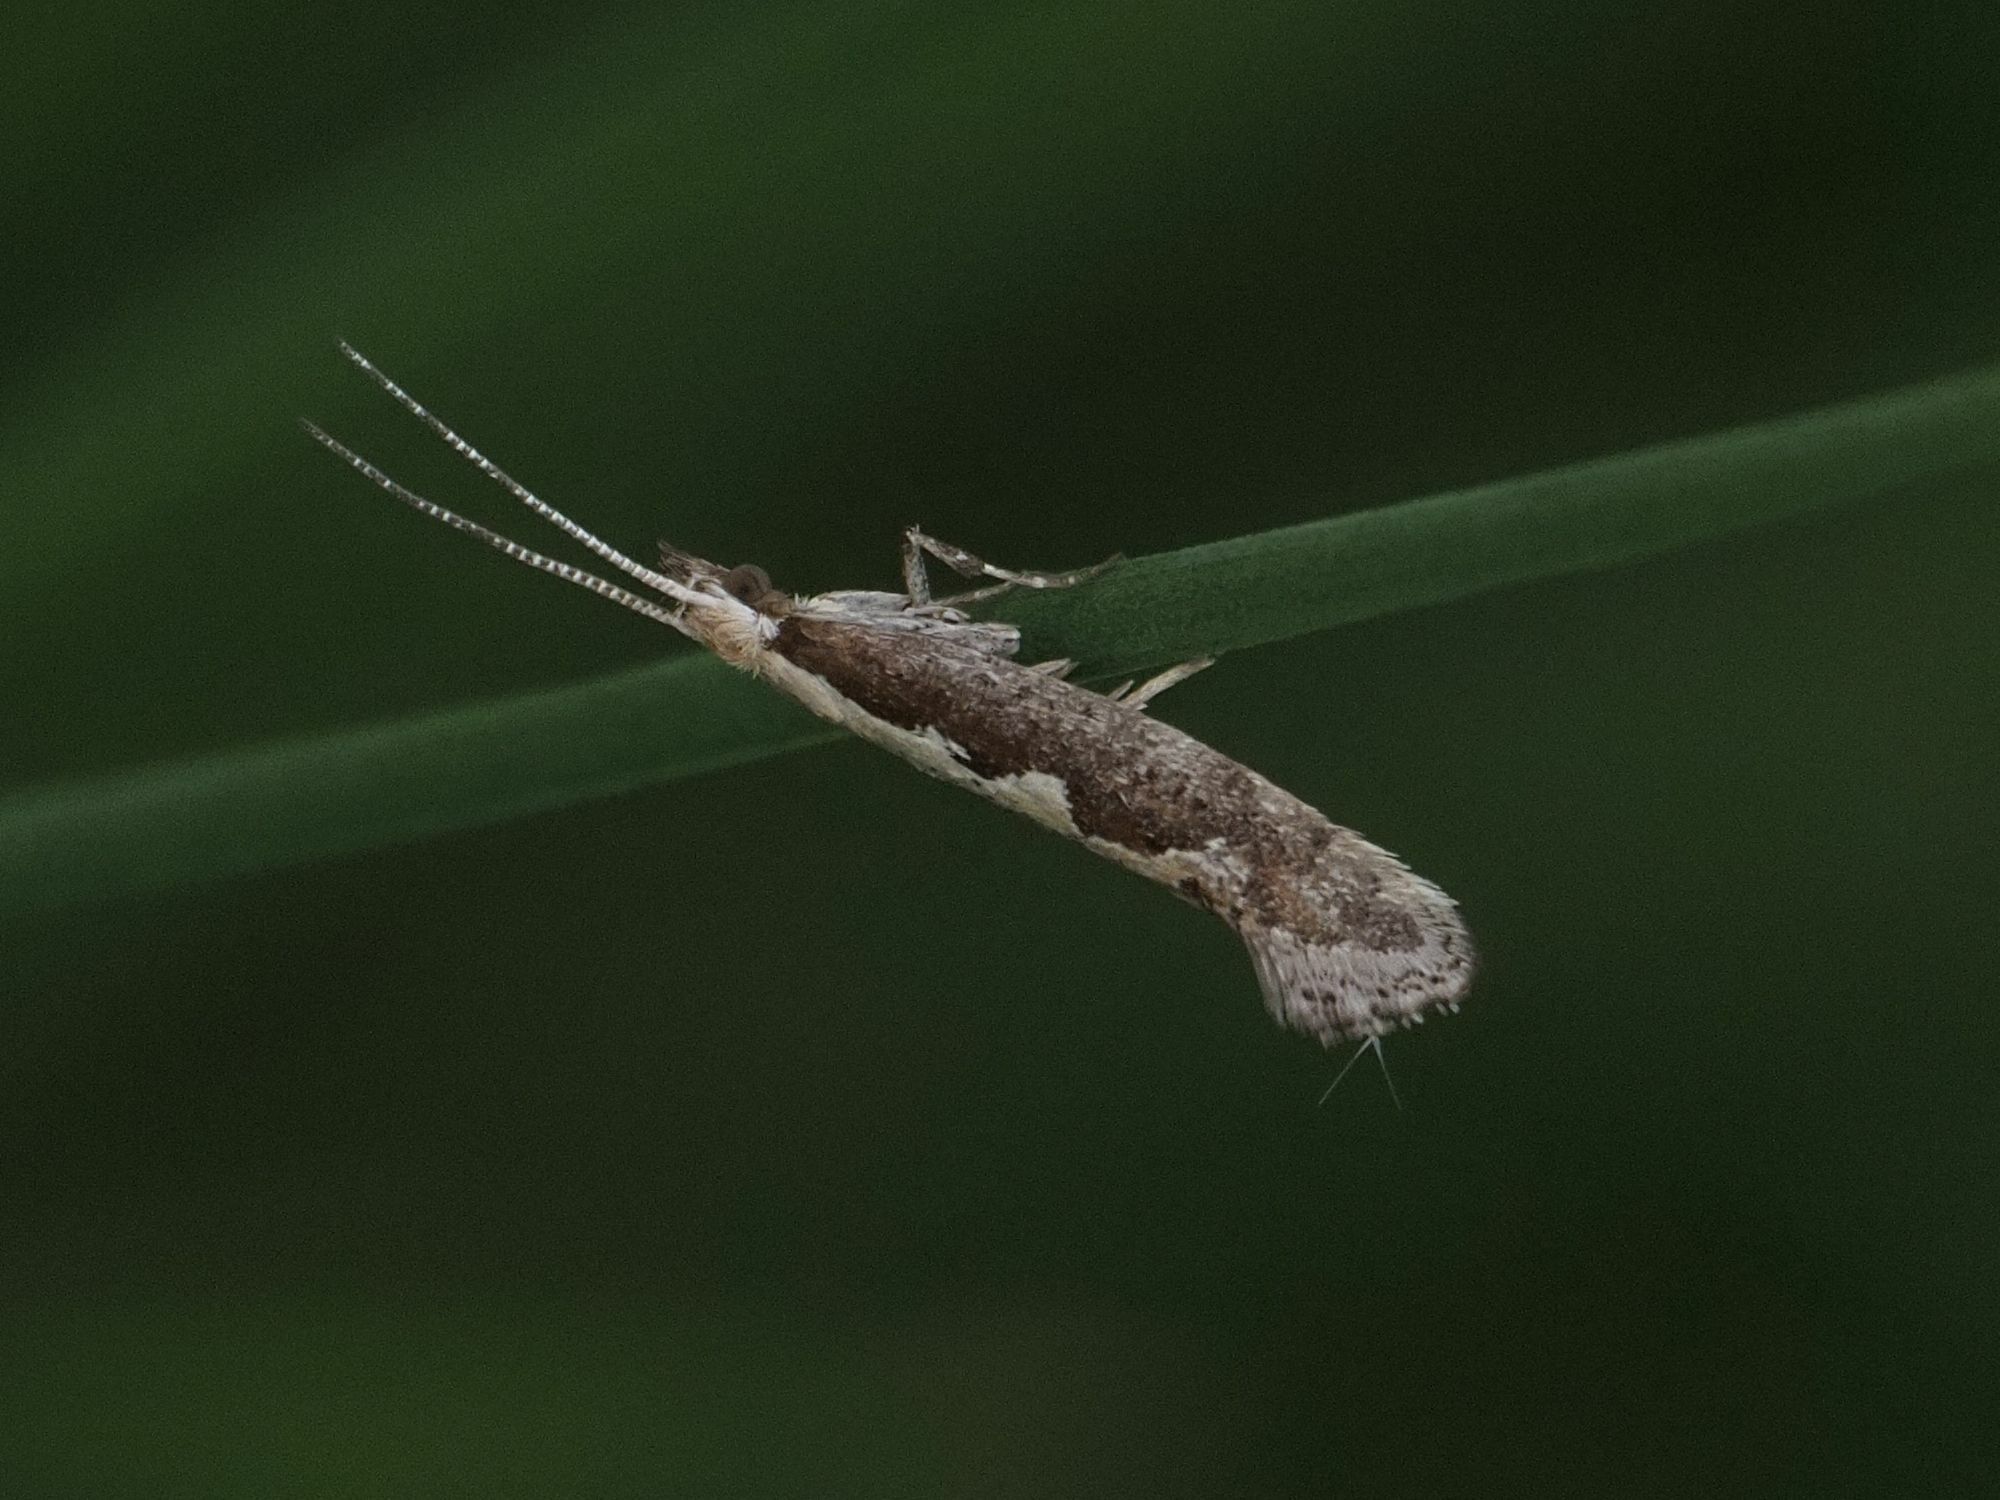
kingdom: Animalia
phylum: Arthropoda
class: Insecta
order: Lepidoptera
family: Plutellidae
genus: Plutella
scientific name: Plutella xylostella
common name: Diamond-back moth
